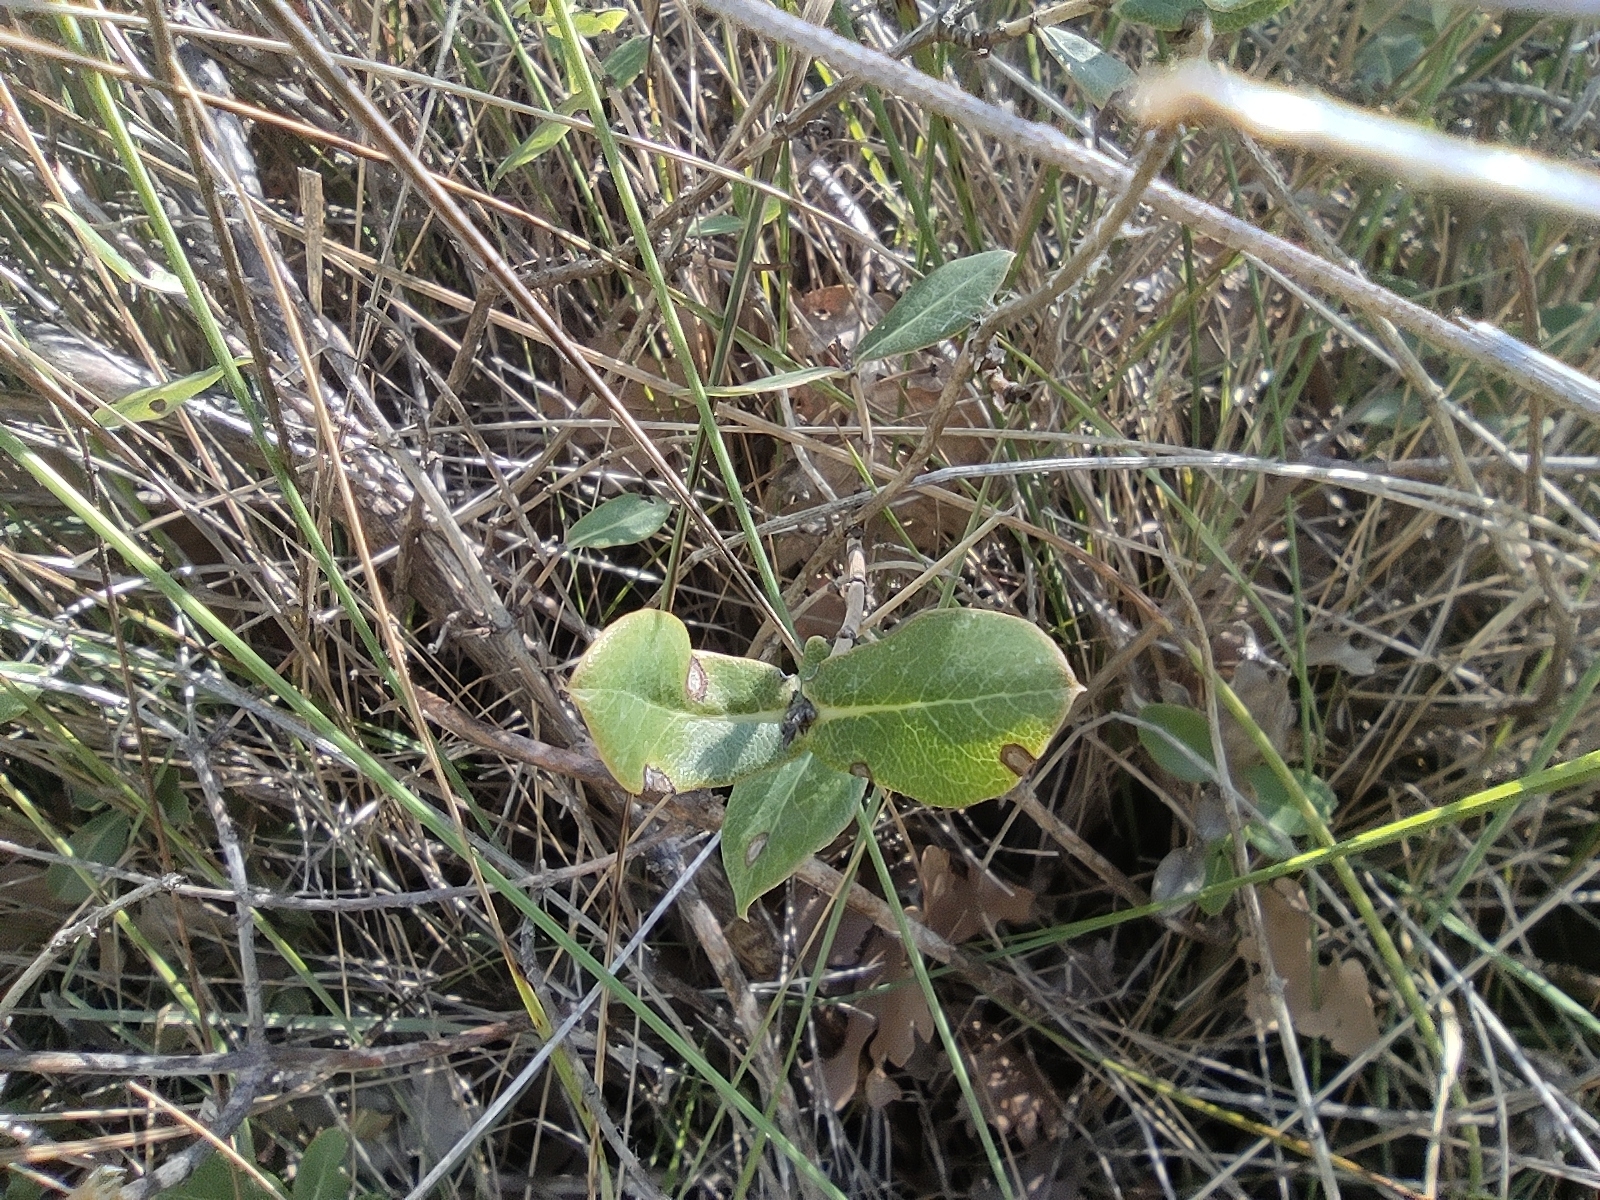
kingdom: Plantae
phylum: Tracheophyta
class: Magnoliopsida
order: Dipsacales
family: Caprifoliaceae
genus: Lonicera
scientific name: Lonicera implexa
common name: Minorca honeysuckle
